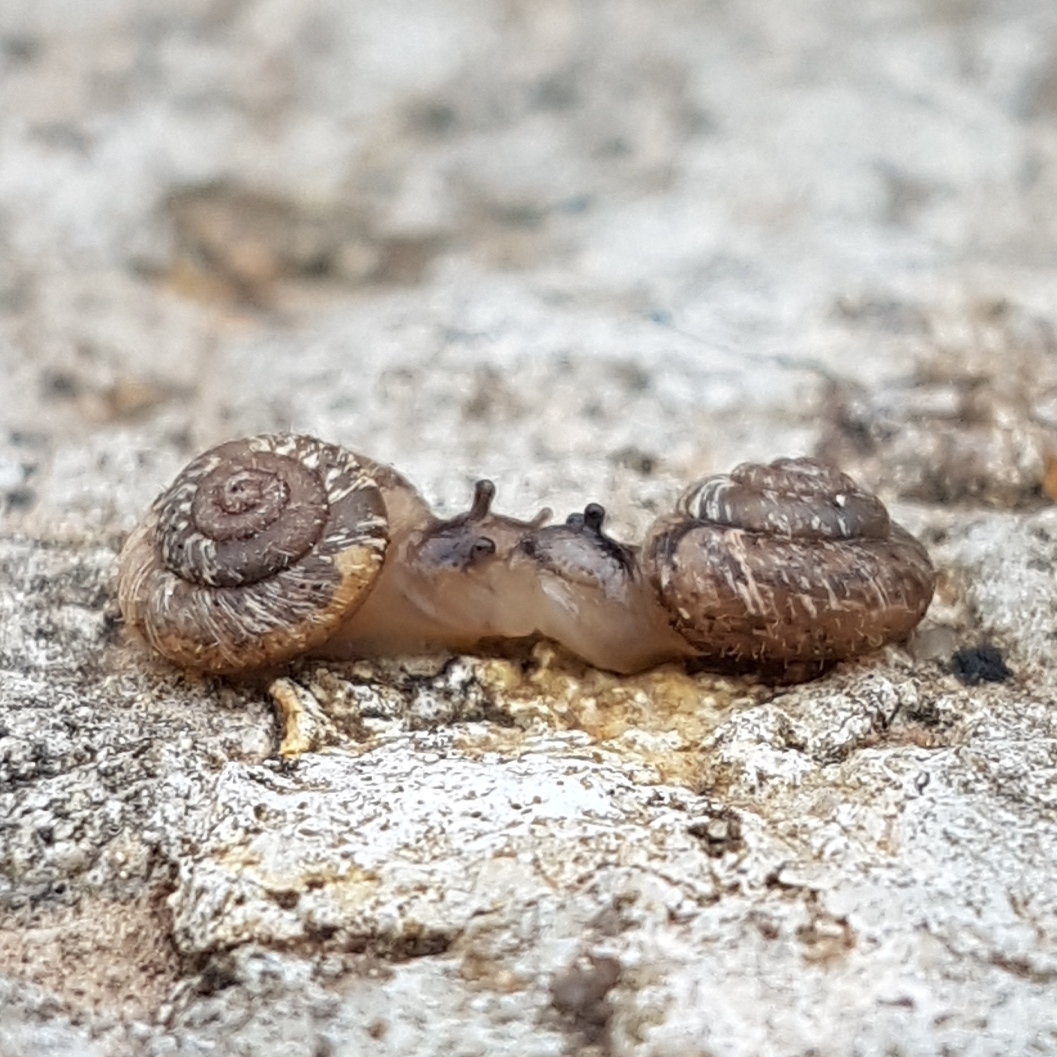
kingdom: Animalia
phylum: Mollusca
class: Gastropoda
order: Stylommatophora
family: Geomitridae
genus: Xerotricha
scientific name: Xerotricha conspurcata
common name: Snail
